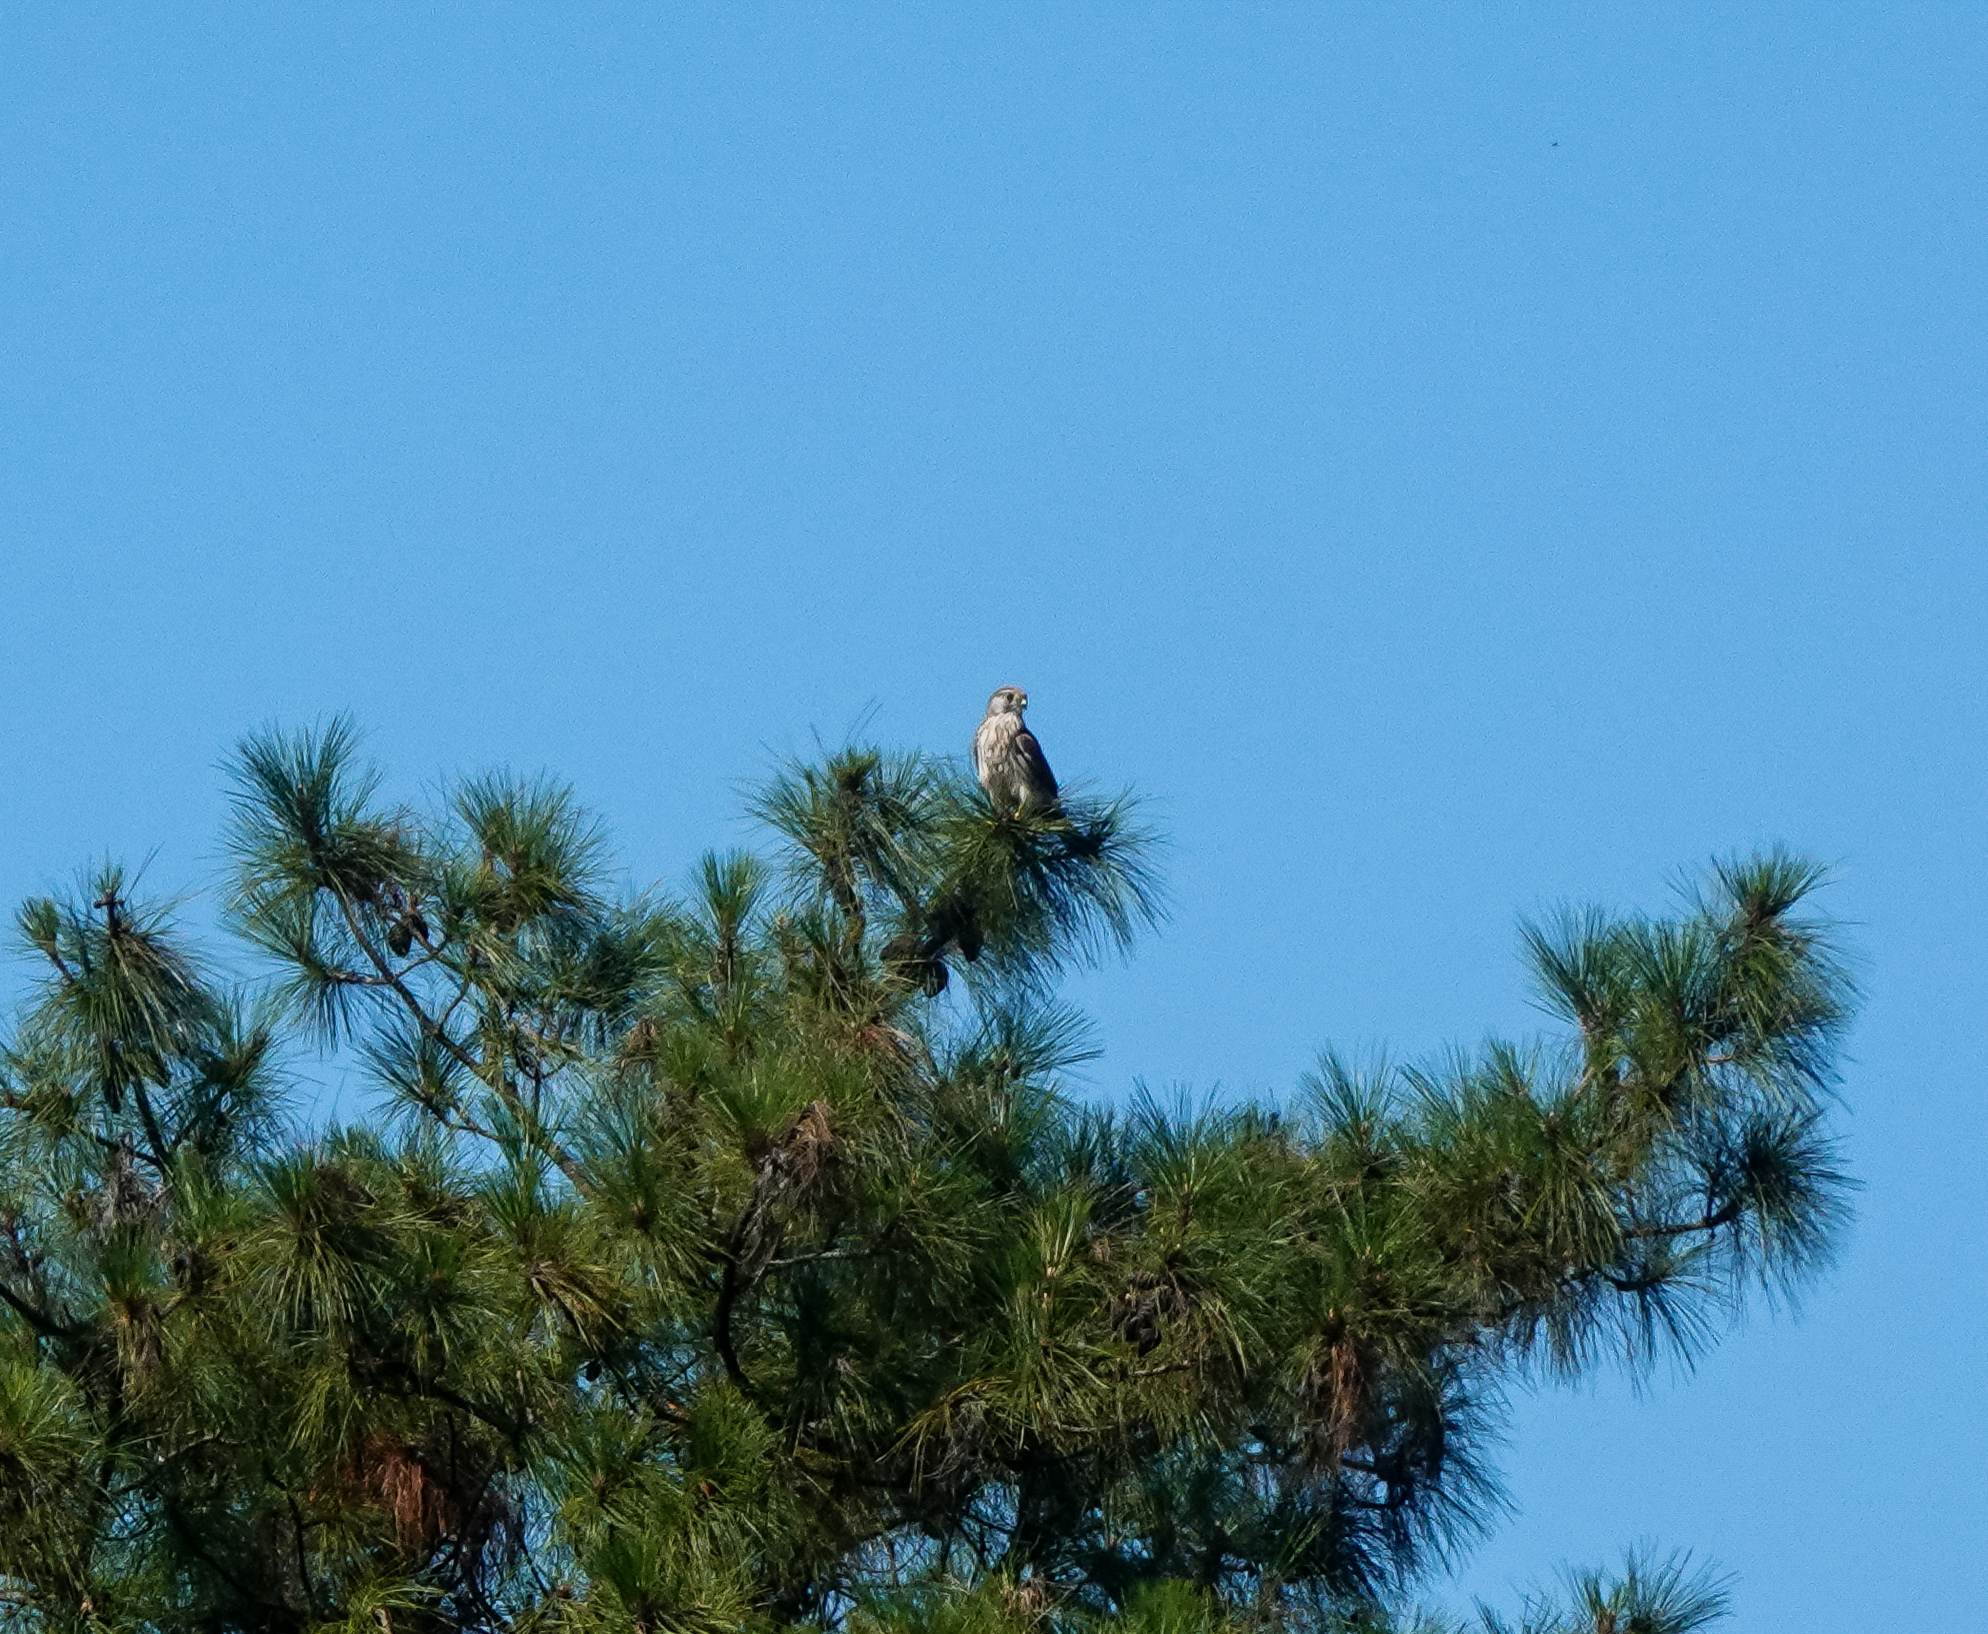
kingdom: Animalia
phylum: Chordata
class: Aves
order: Falconiformes
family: Falconidae
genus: Falco
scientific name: Falco tinnunculus
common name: Common kestrel
